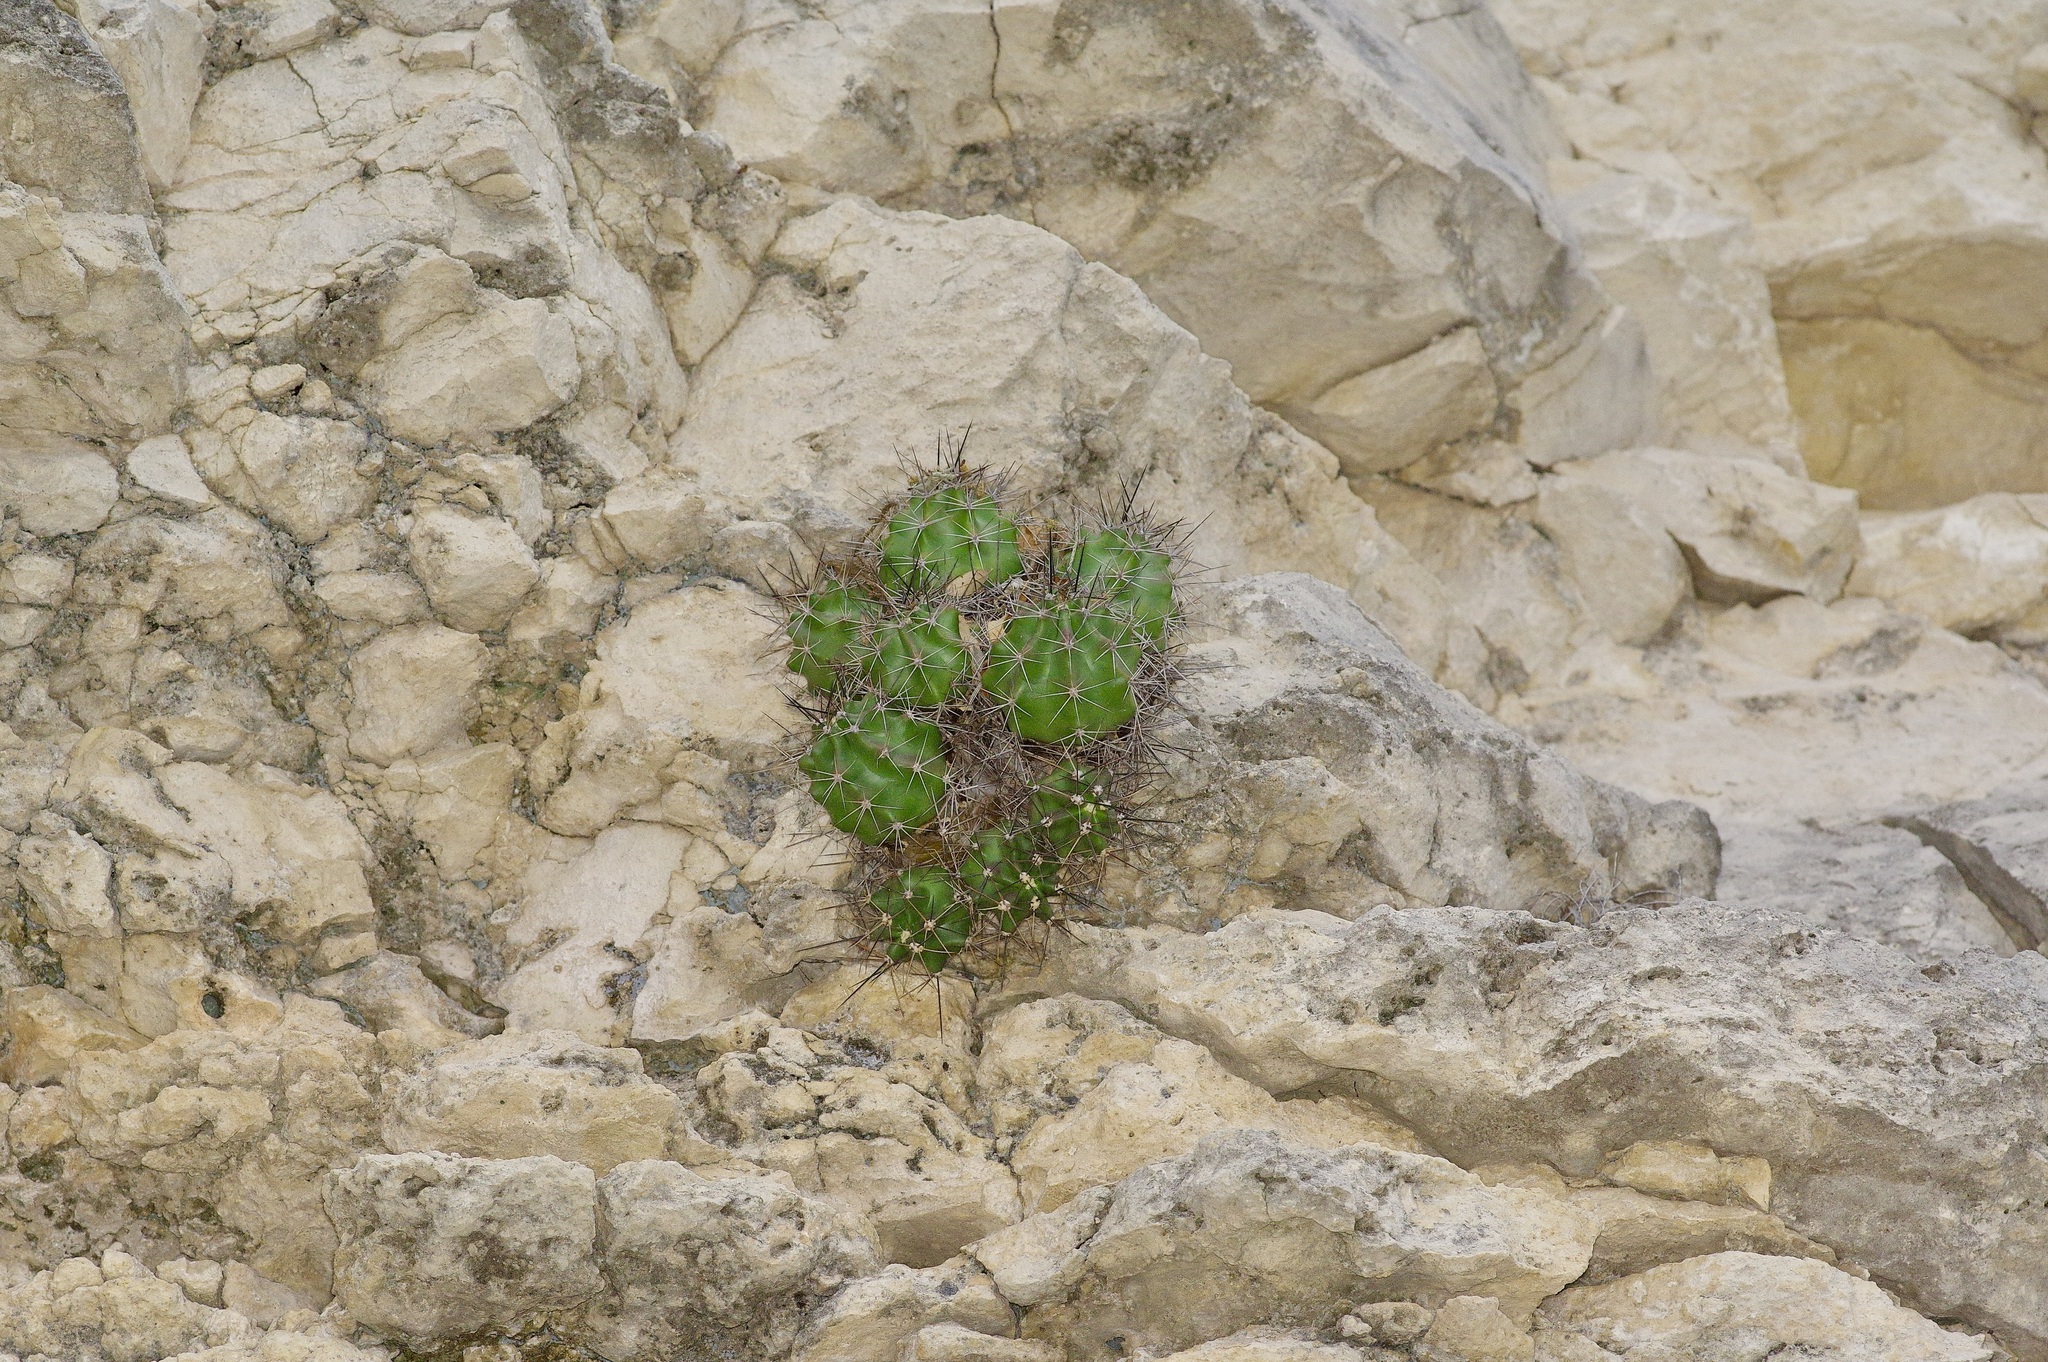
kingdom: Plantae
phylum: Tracheophyta
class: Magnoliopsida
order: Caryophyllales
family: Cactaceae
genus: Echinocereus
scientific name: Echinocereus coccineus
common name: Scarlet hedgehog cactus
